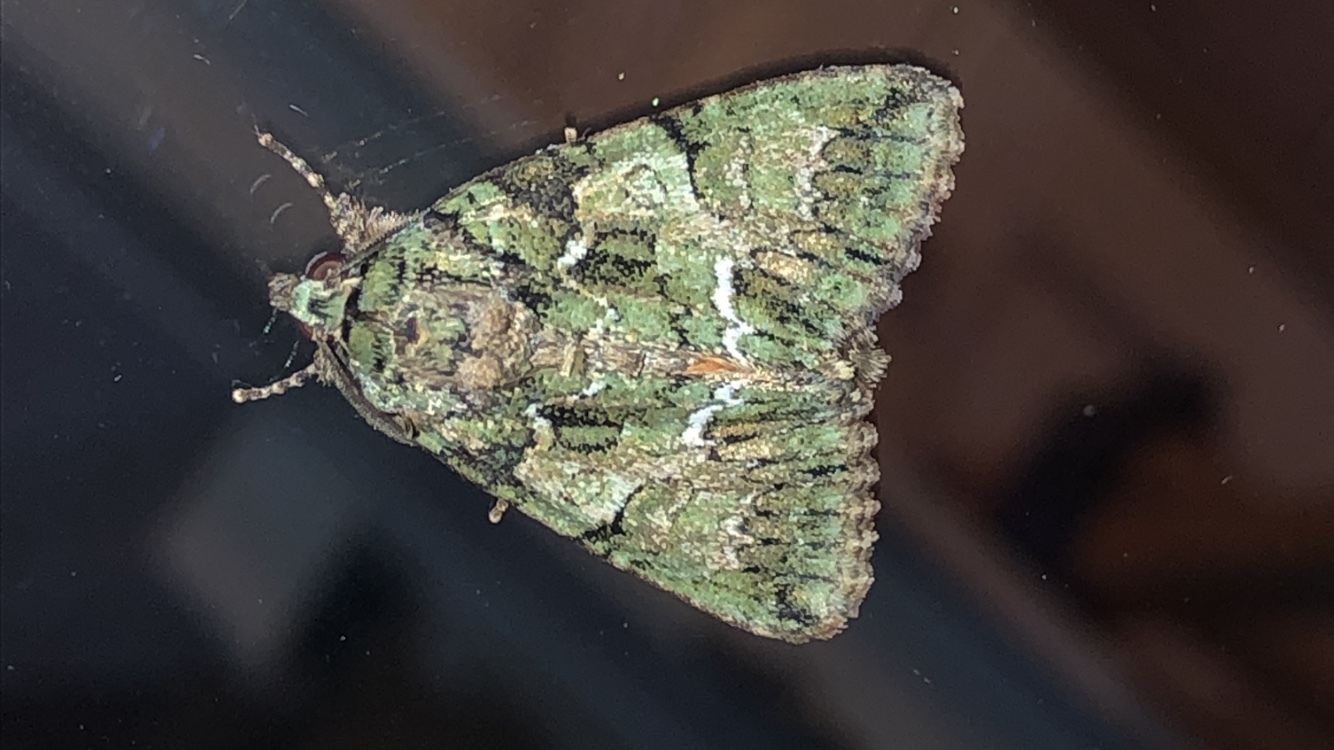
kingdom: Animalia
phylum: Arthropoda
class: Insecta
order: Lepidoptera
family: Noctuidae
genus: Polyphaenis
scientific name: Polyphaenis sericata
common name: Guernsey underwing
